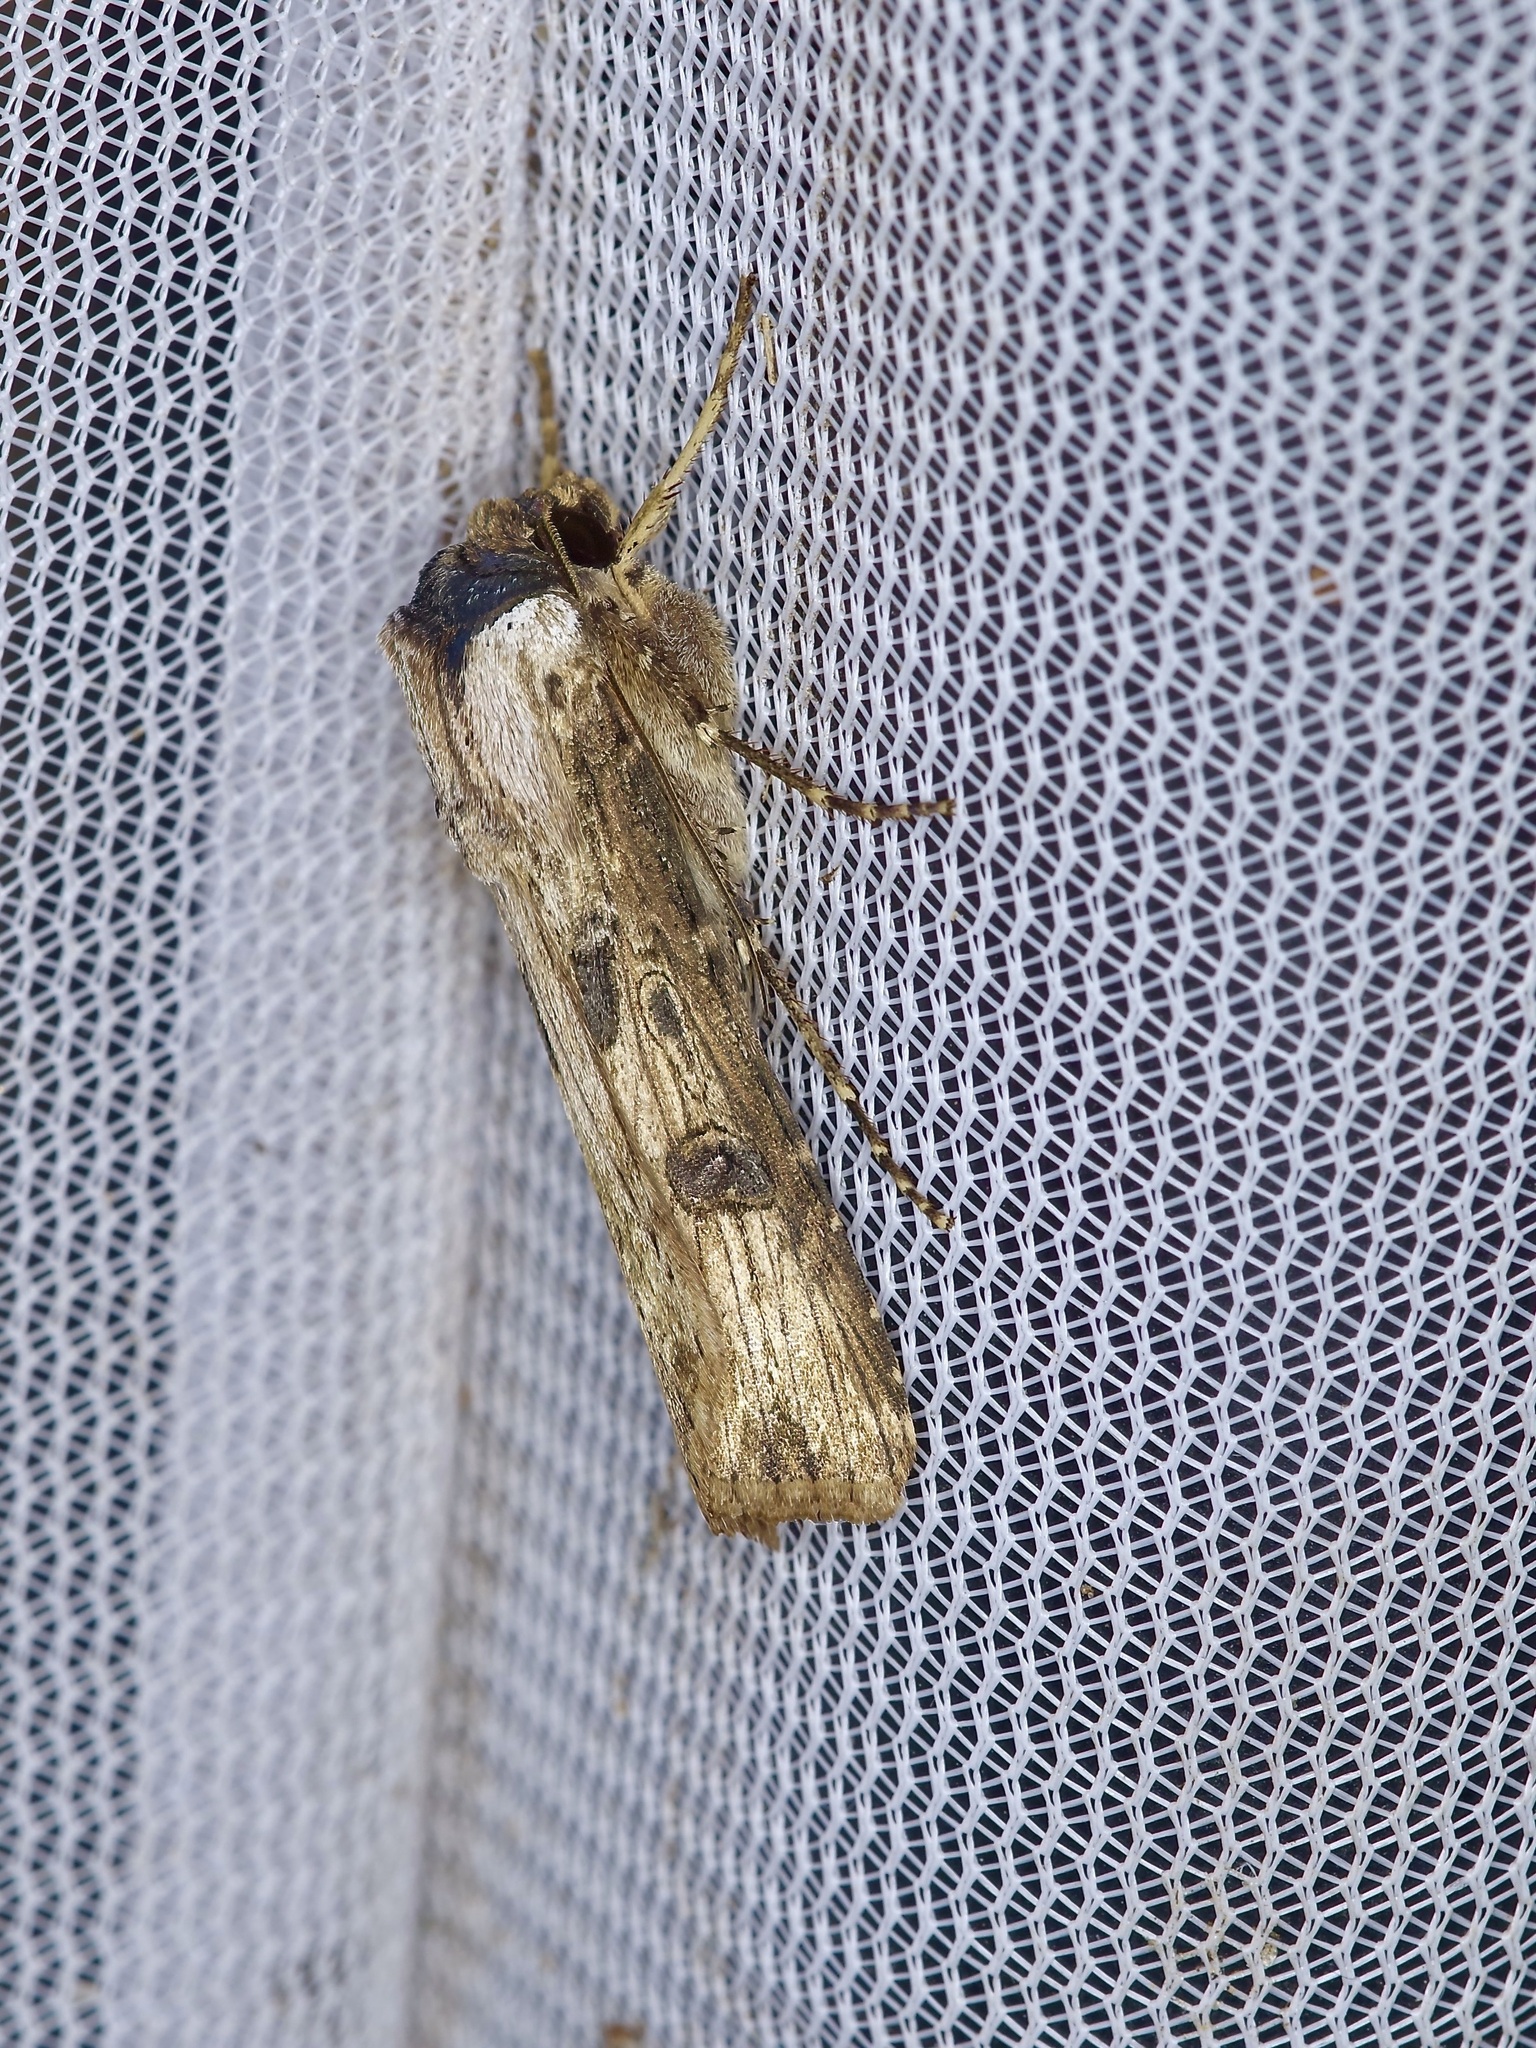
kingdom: Animalia
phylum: Arthropoda
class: Insecta
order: Lepidoptera
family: Noctuidae
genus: Agrotis
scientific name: Agrotis malefida
